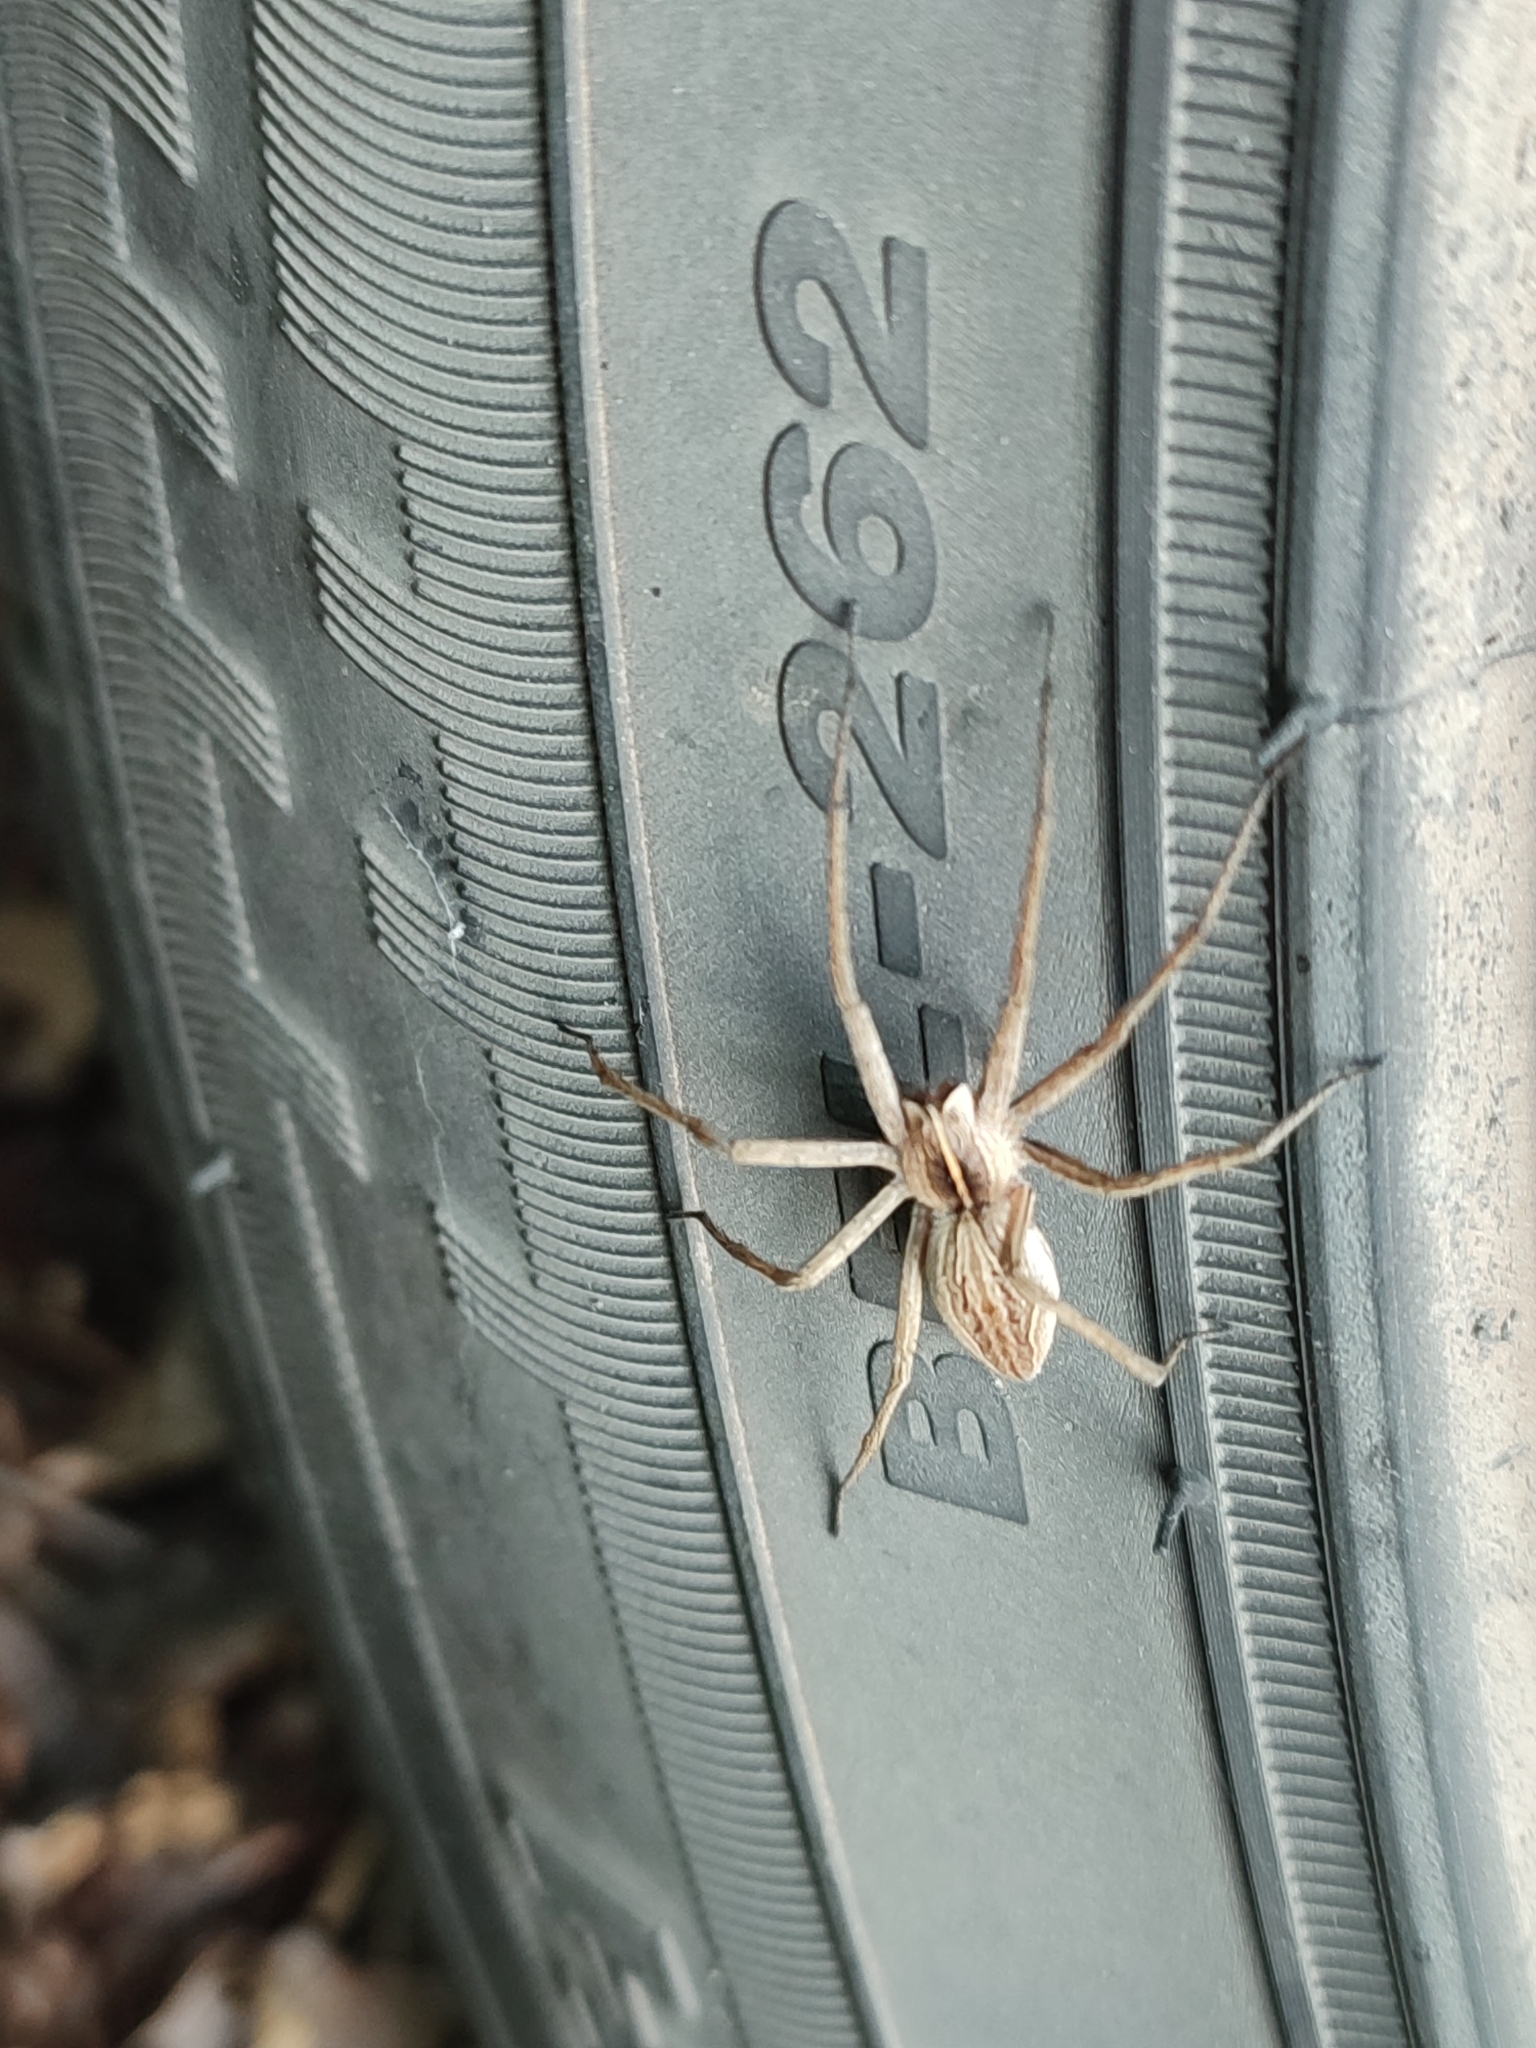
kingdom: Animalia
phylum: Arthropoda
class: Arachnida
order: Araneae
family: Pisauridae
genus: Pisaura
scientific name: Pisaura mirabilis
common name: Tent spider
